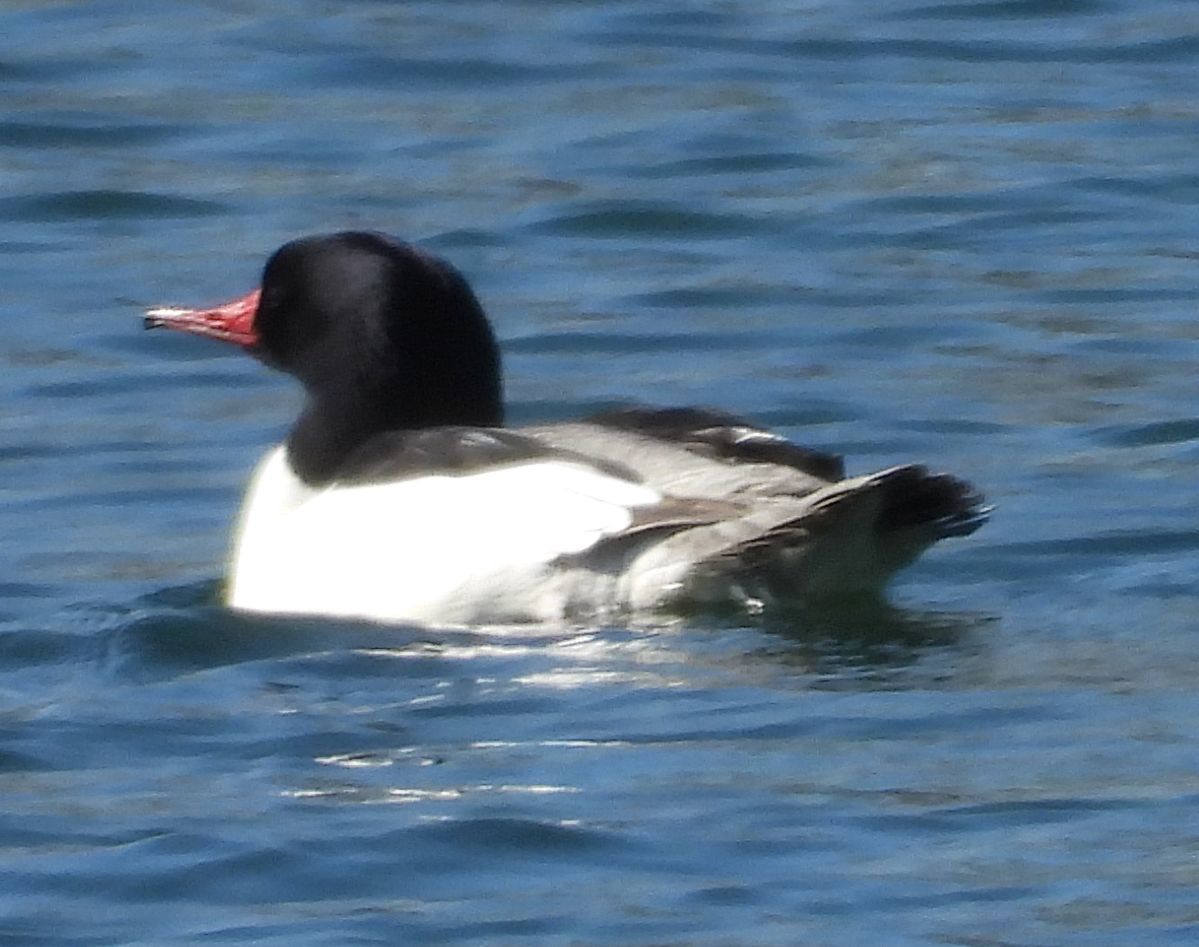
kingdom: Animalia
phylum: Chordata
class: Aves
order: Anseriformes
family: Anatidae
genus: Mergus
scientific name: Mergus merganser
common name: Common merganser
